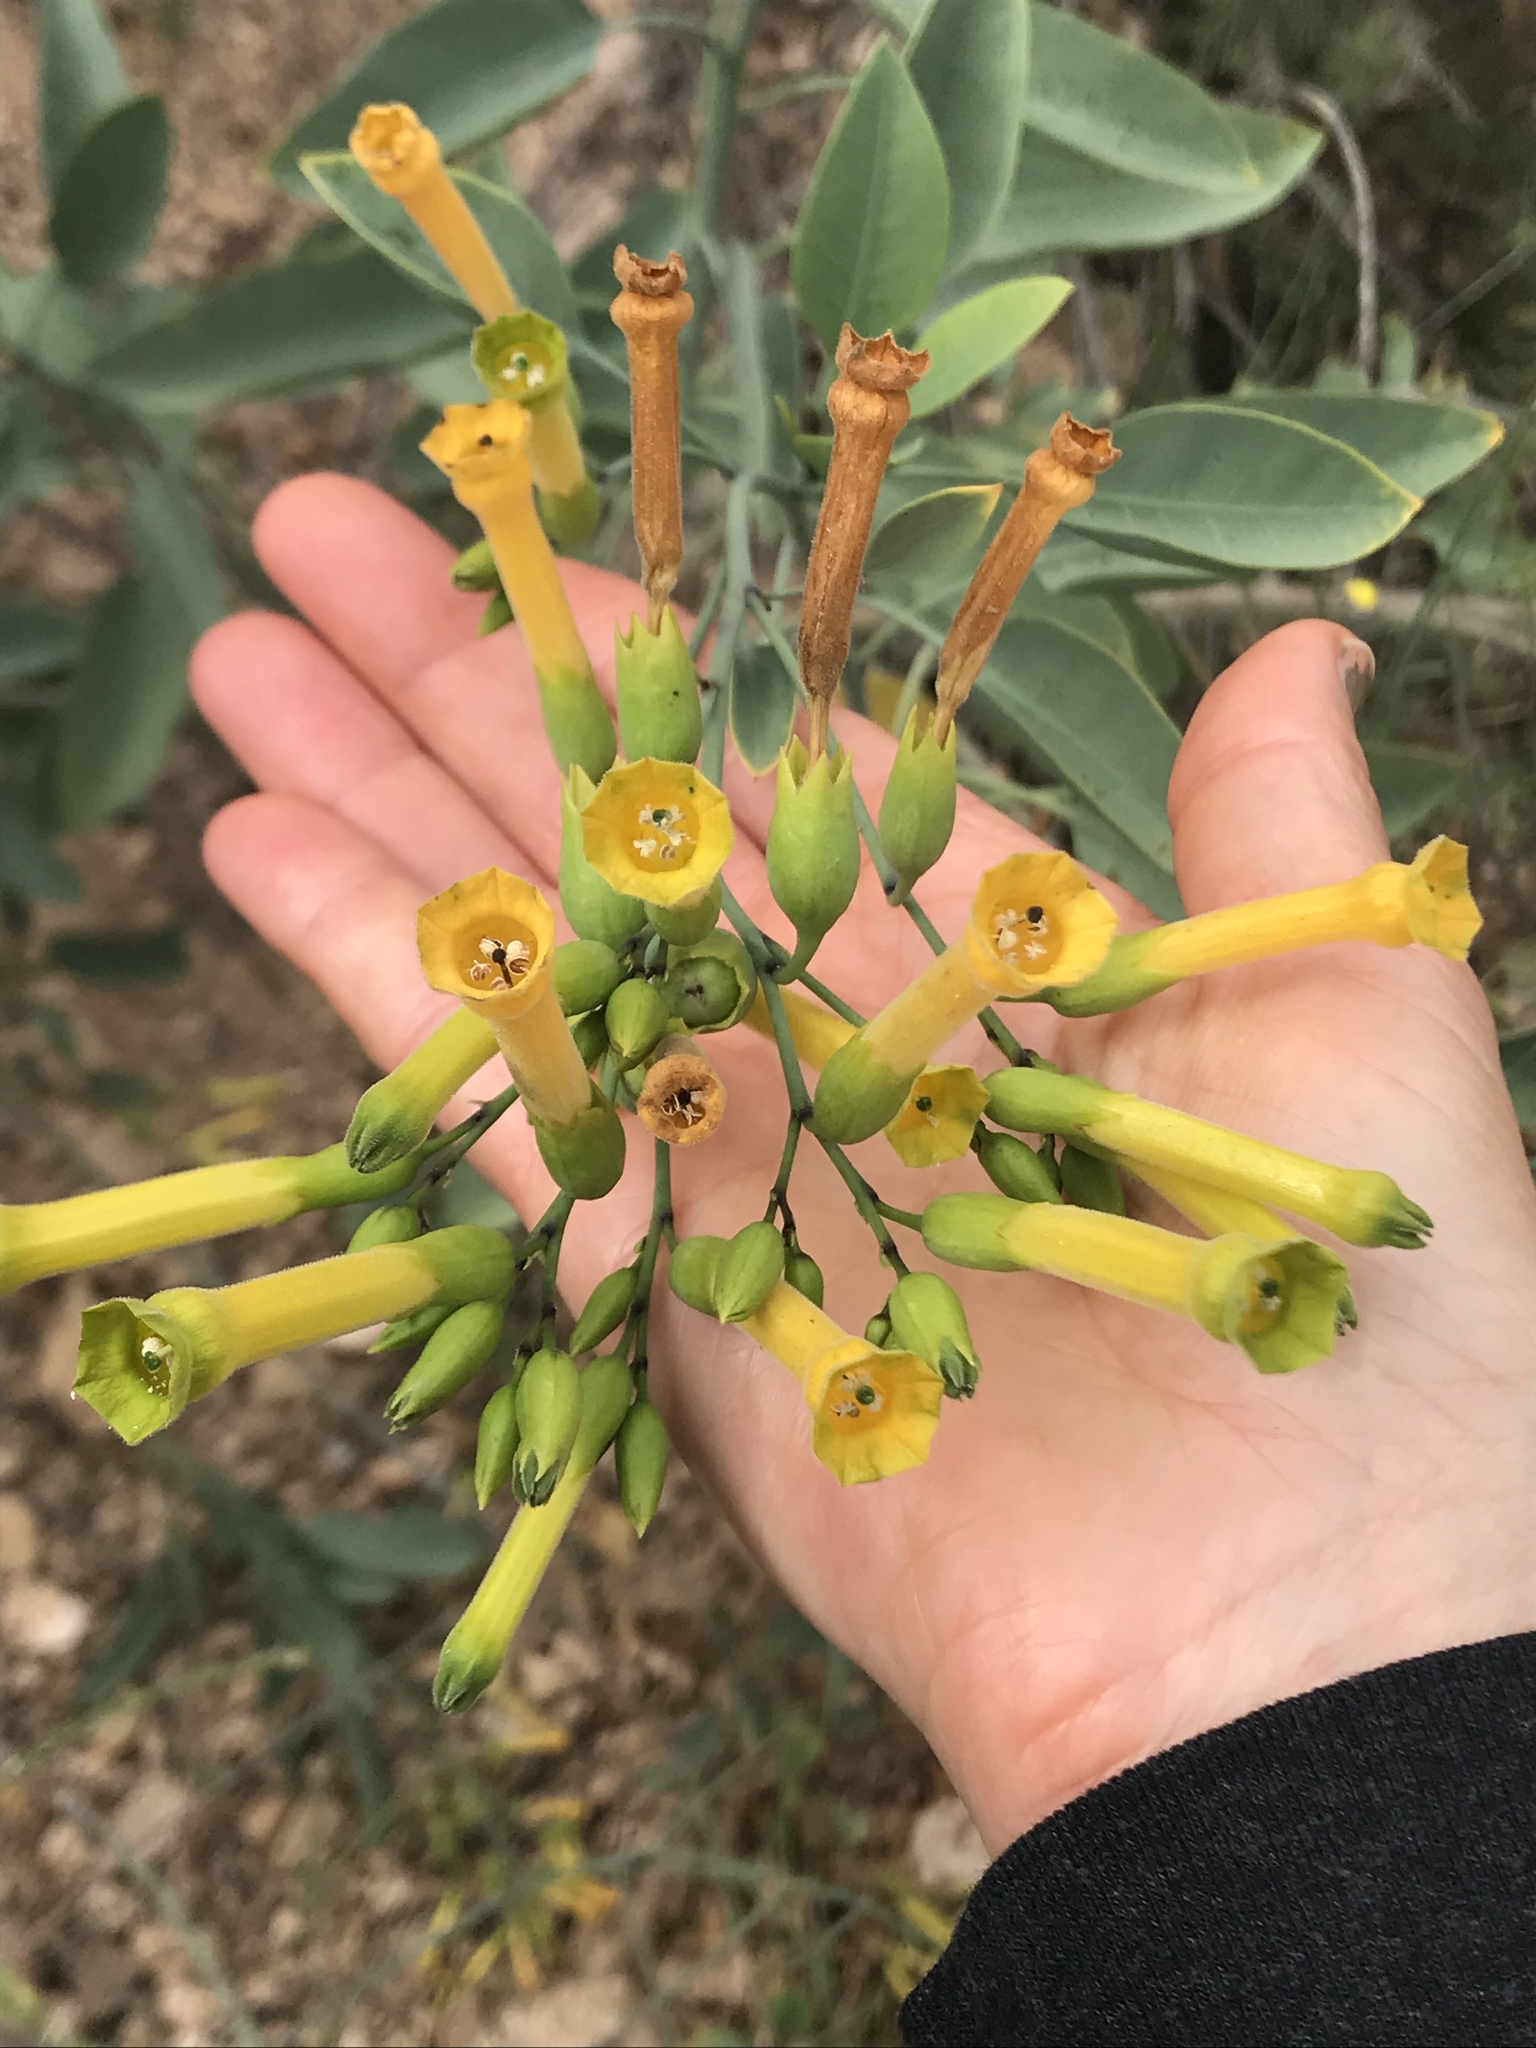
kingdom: Plantae
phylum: Tracheophyta
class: Magnoliopsida
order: Solanales
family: Solanaceae
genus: Nicotiana
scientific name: Nicotiana glauca
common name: Tree tobacco
